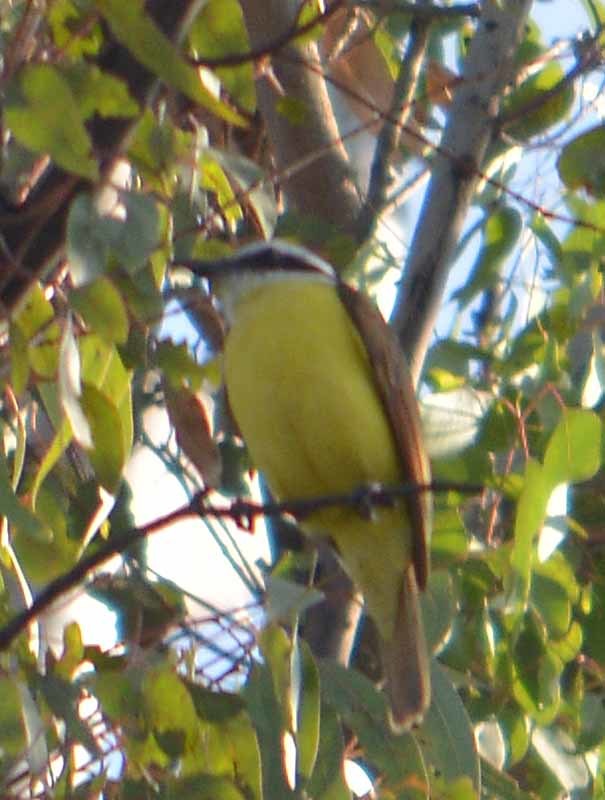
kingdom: Animalia
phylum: Chordata
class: Aves
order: Passeriformes
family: Tyrannidae
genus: Pitangus
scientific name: Pitangus sulphuratus
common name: Great kiskadee
